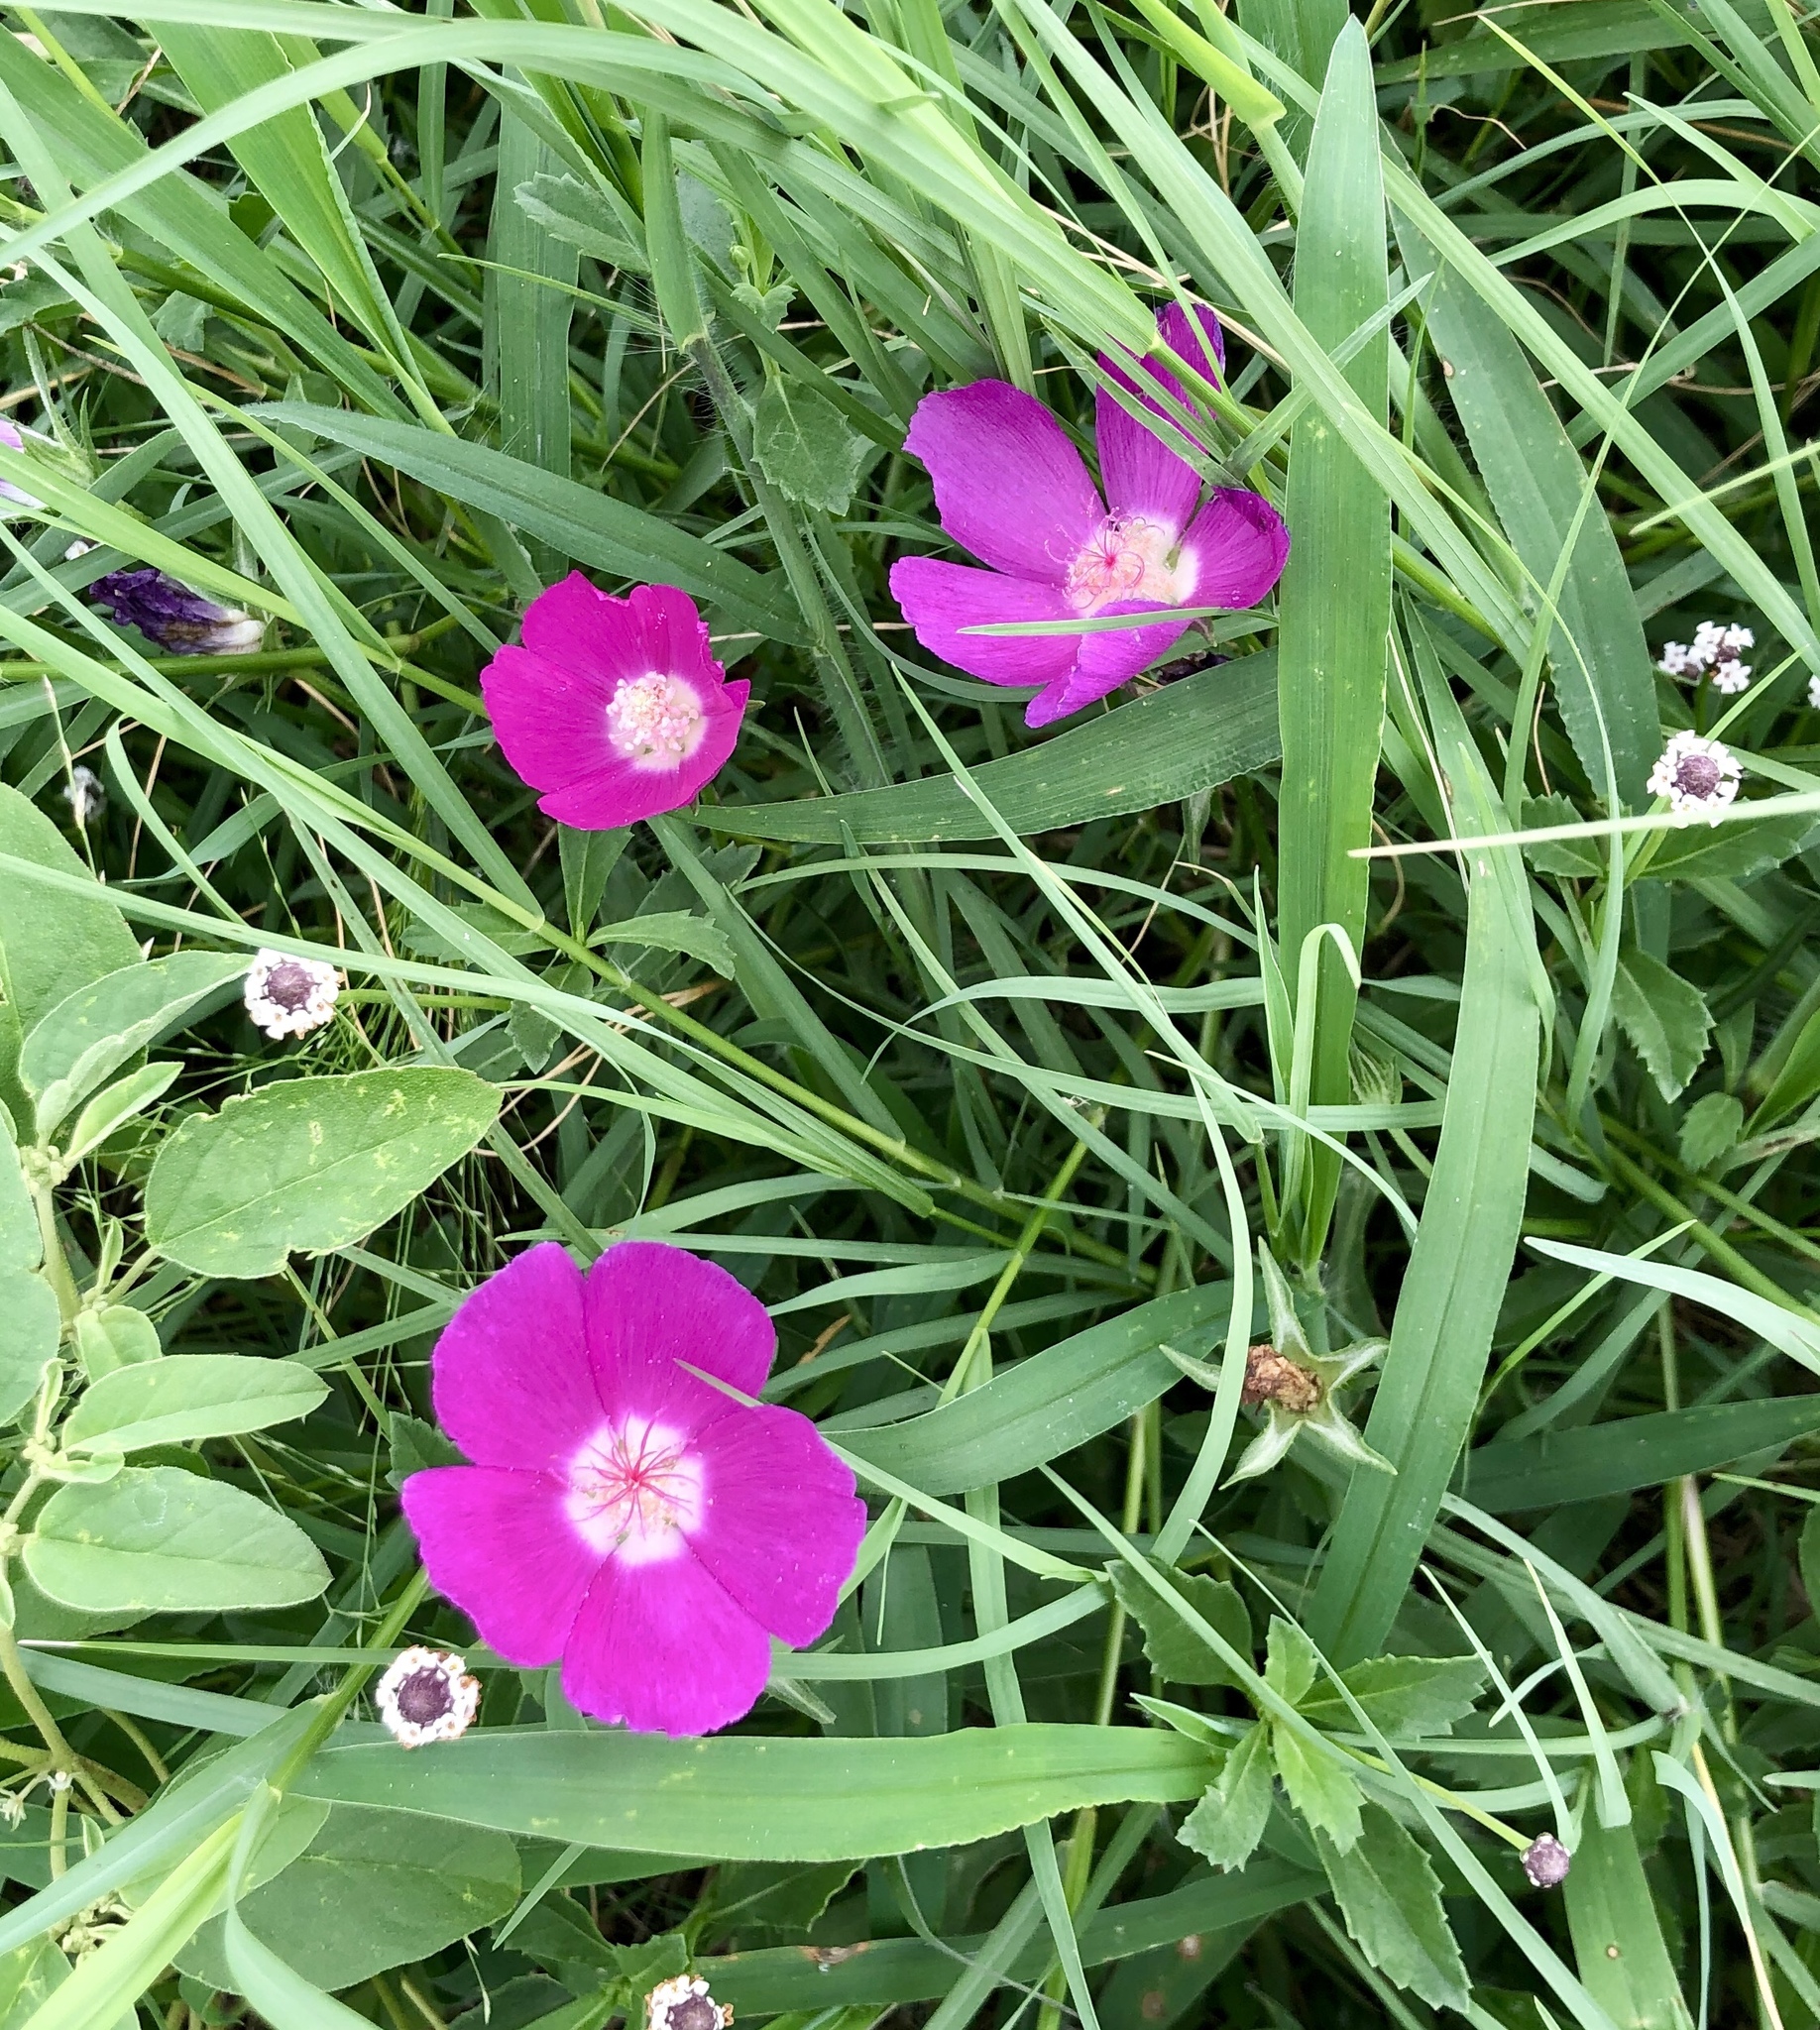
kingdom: Plantae
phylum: Tracheophyta
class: Magnoliopsida
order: Malvales
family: Malvaceae
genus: Callirhoe
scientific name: Callirhoe involucrata
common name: Purple poppy-mallow
